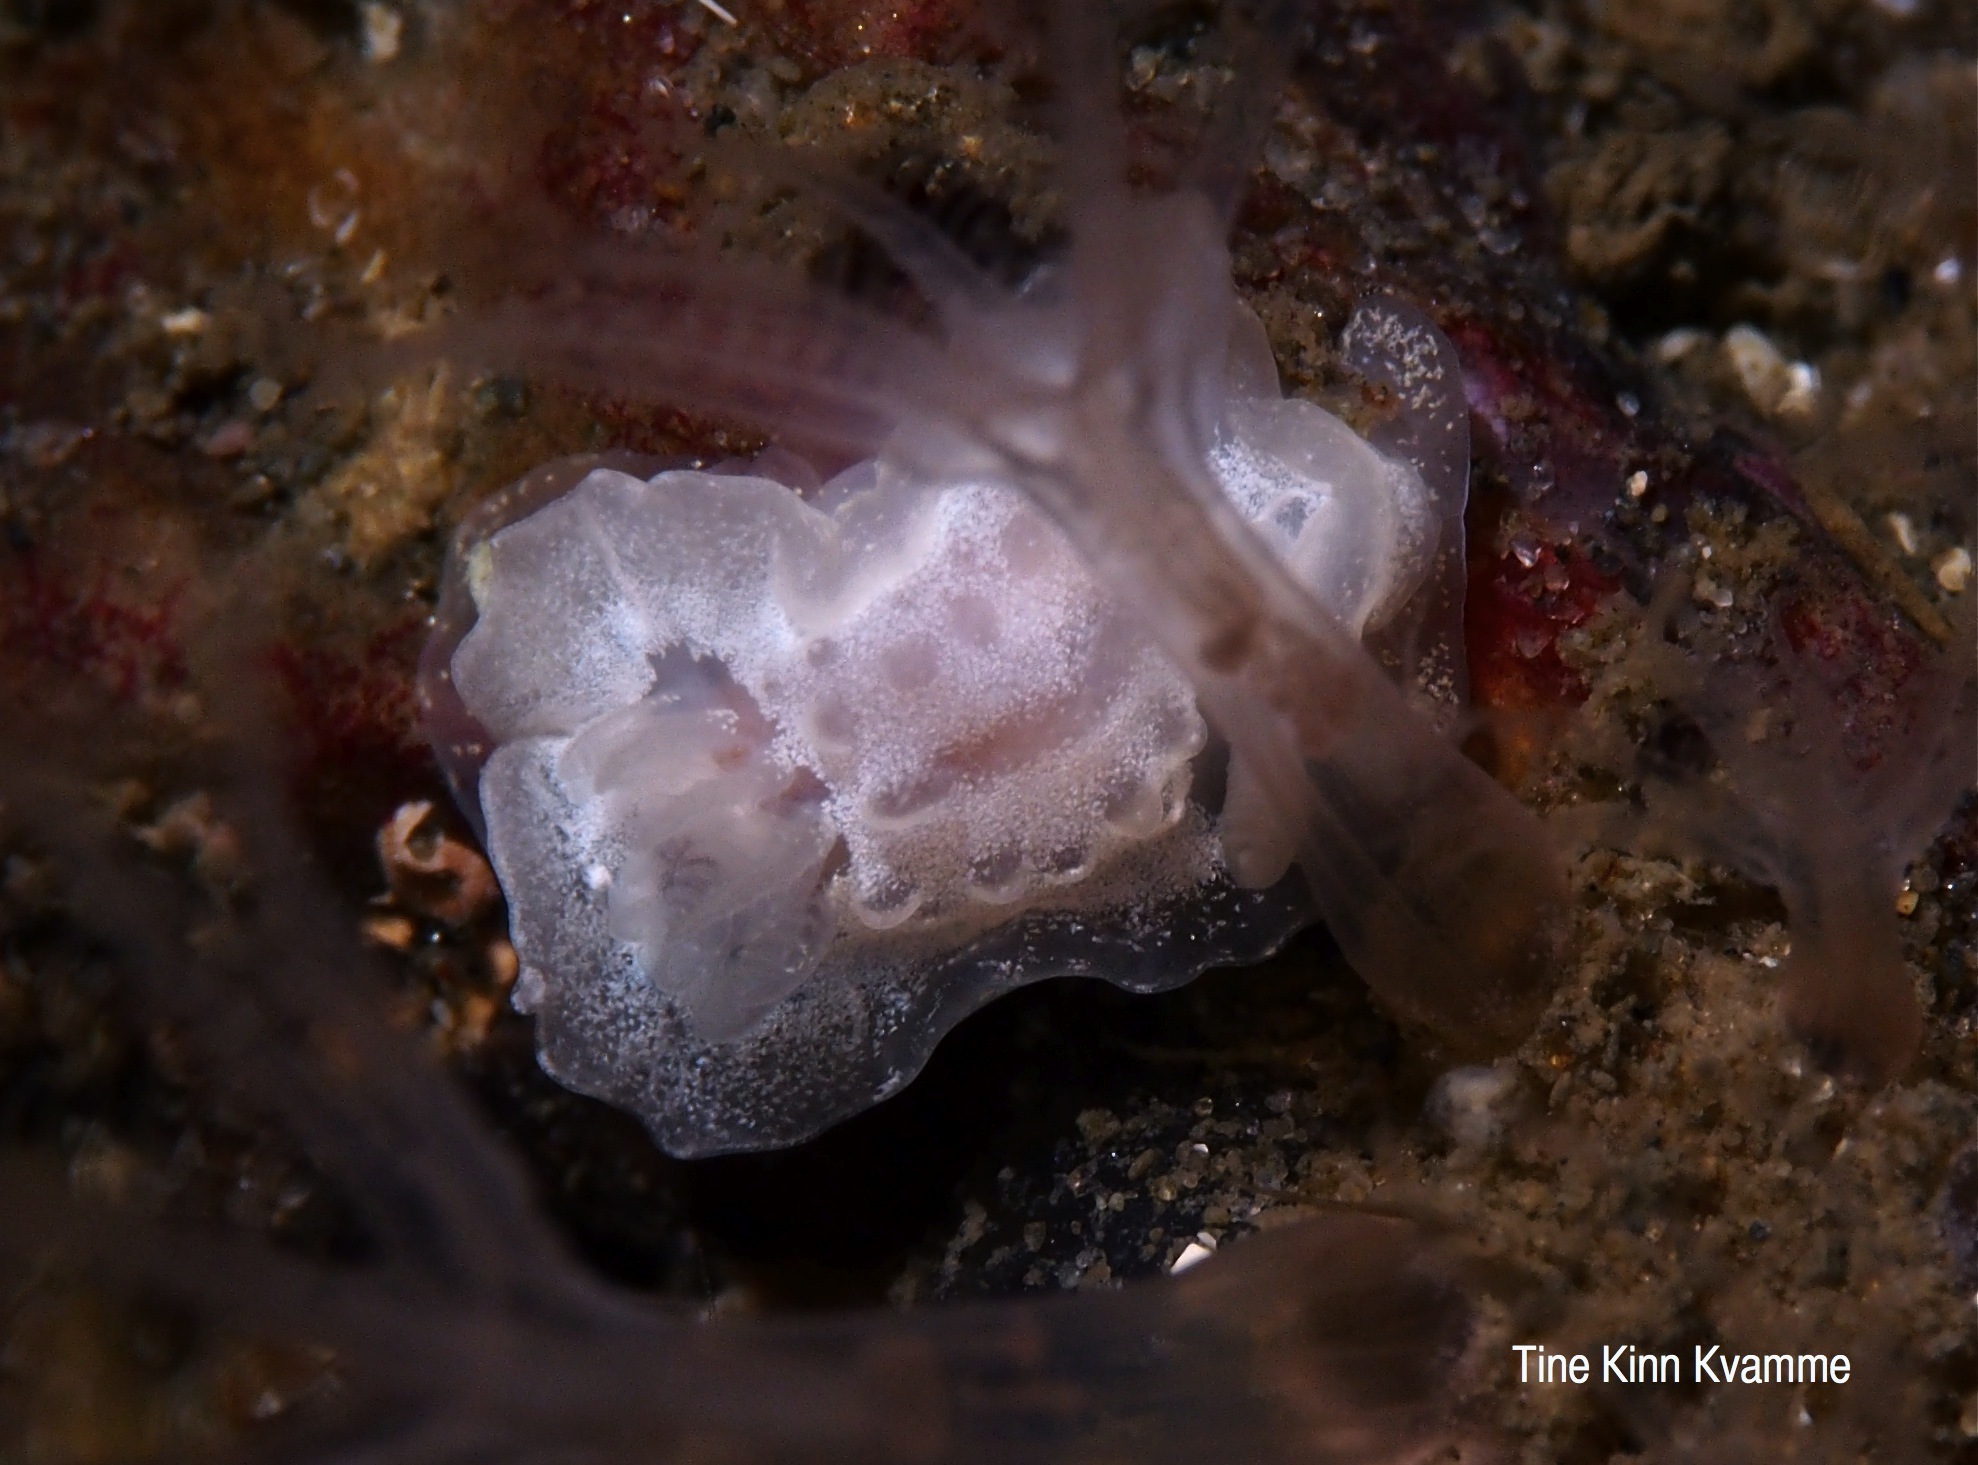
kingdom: Animalia
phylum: Mollusca
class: Gastropoda
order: Nudibranchia
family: Goniodorididae
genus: Okenia
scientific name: Okenia
